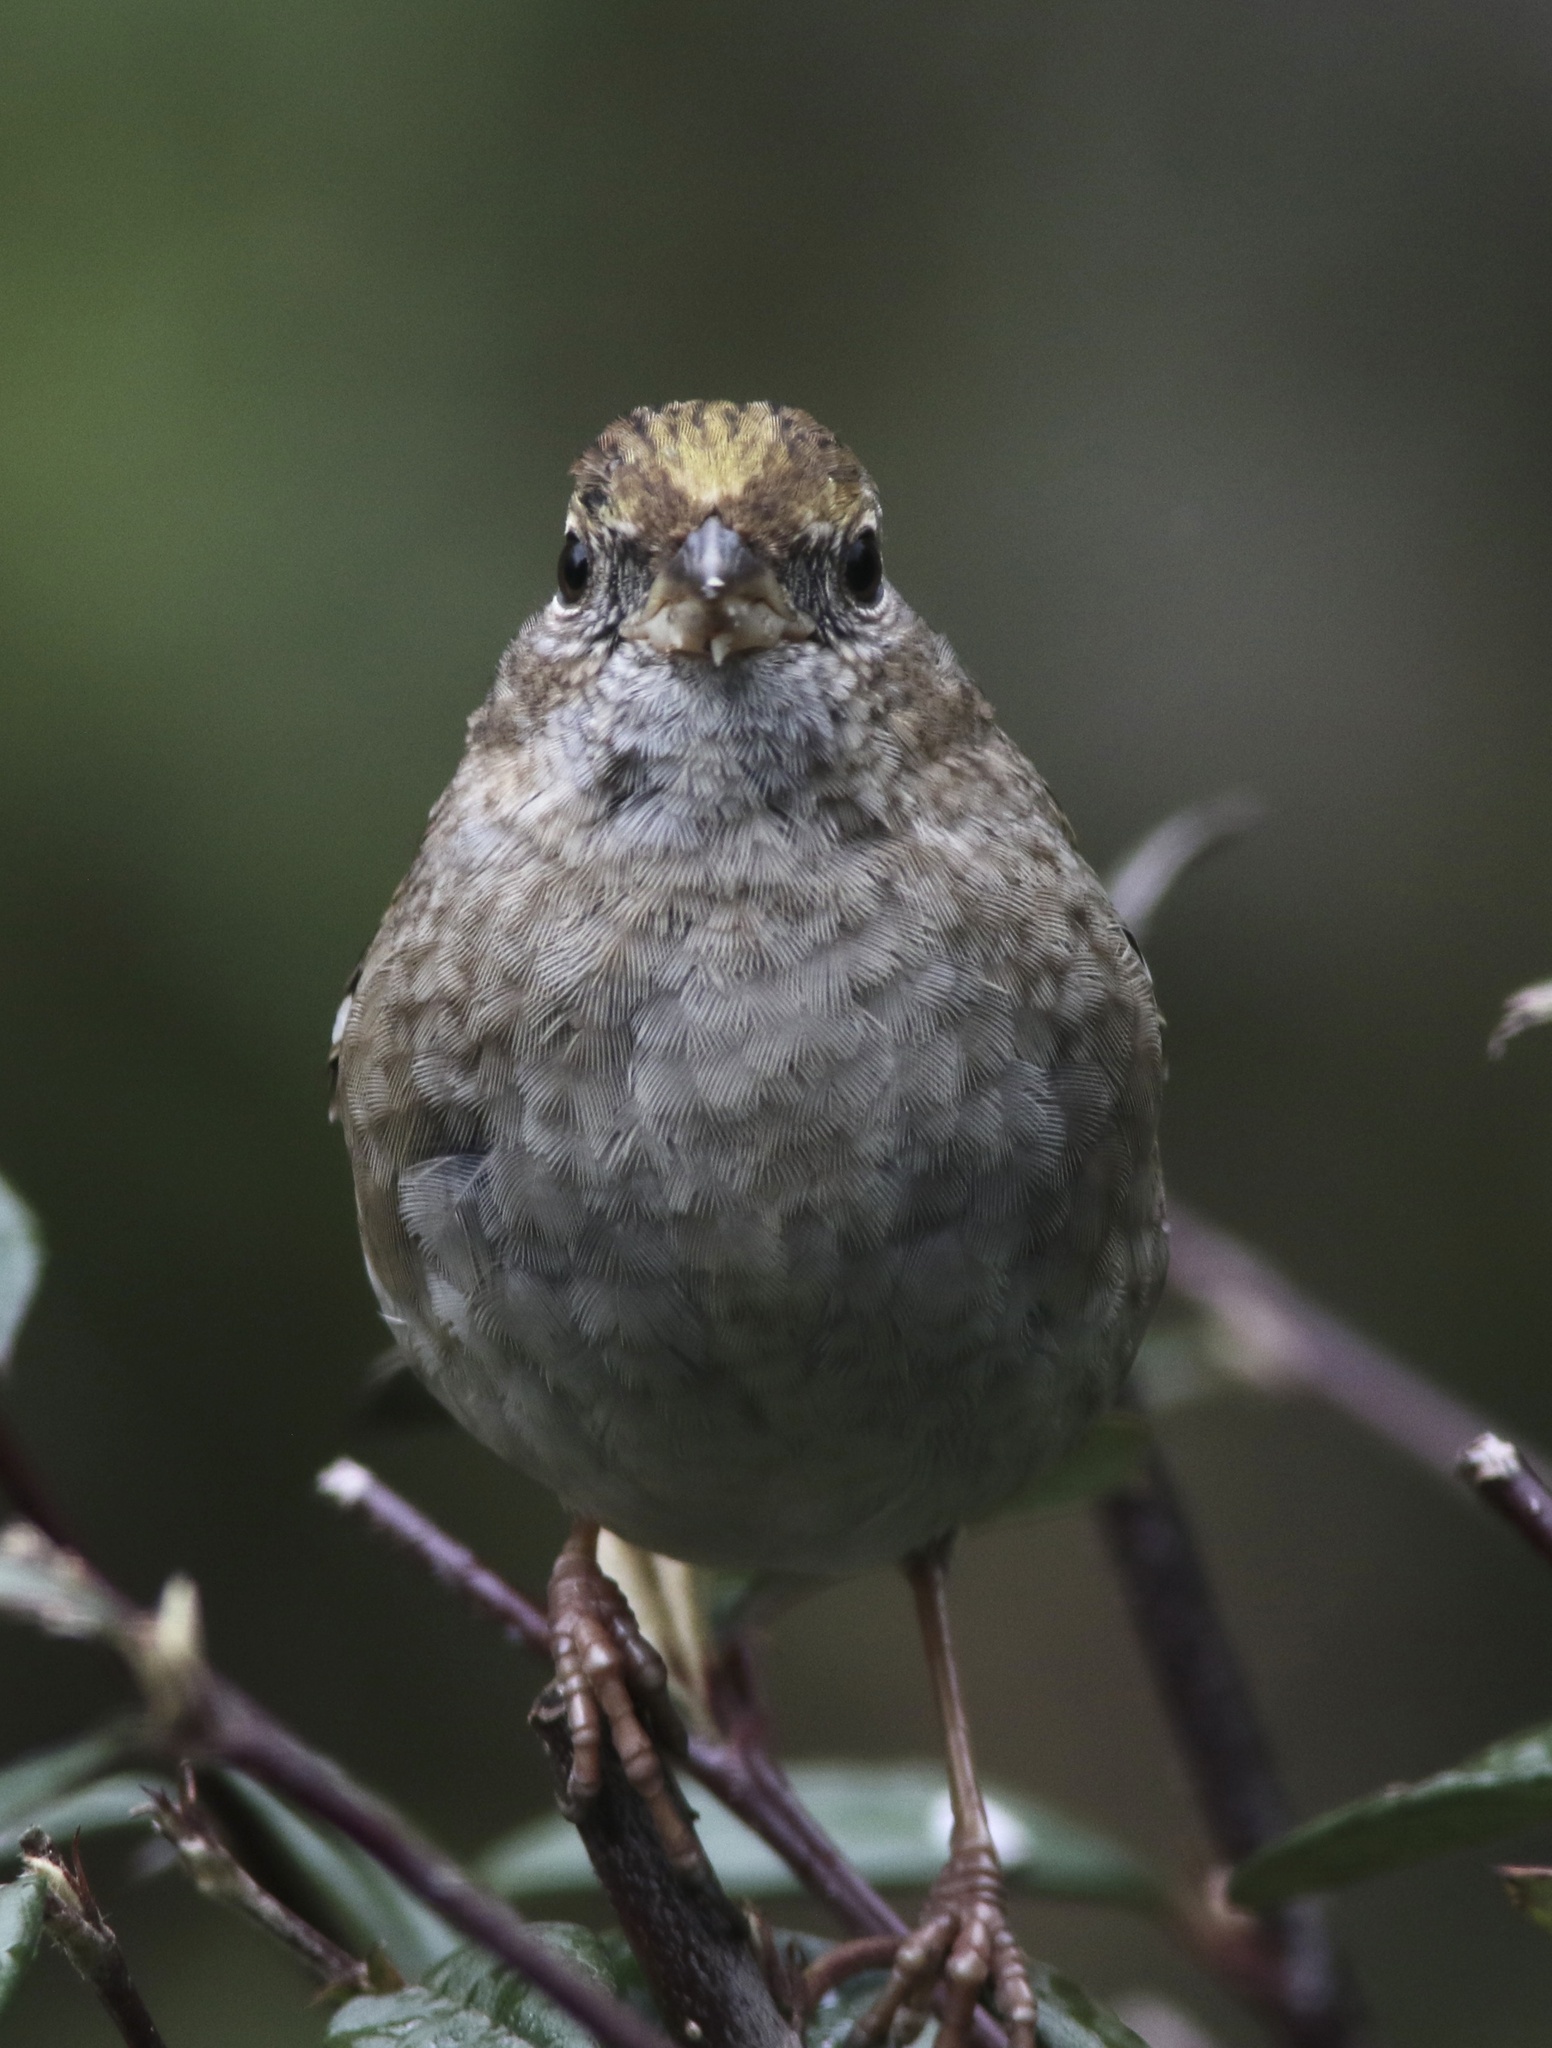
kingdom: Animalia
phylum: Chordata
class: Aves
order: Passeriformes
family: Passerellidae
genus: Zonotrichia
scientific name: Zonotrichia atricapilla
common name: Golden-crowned sparrow
